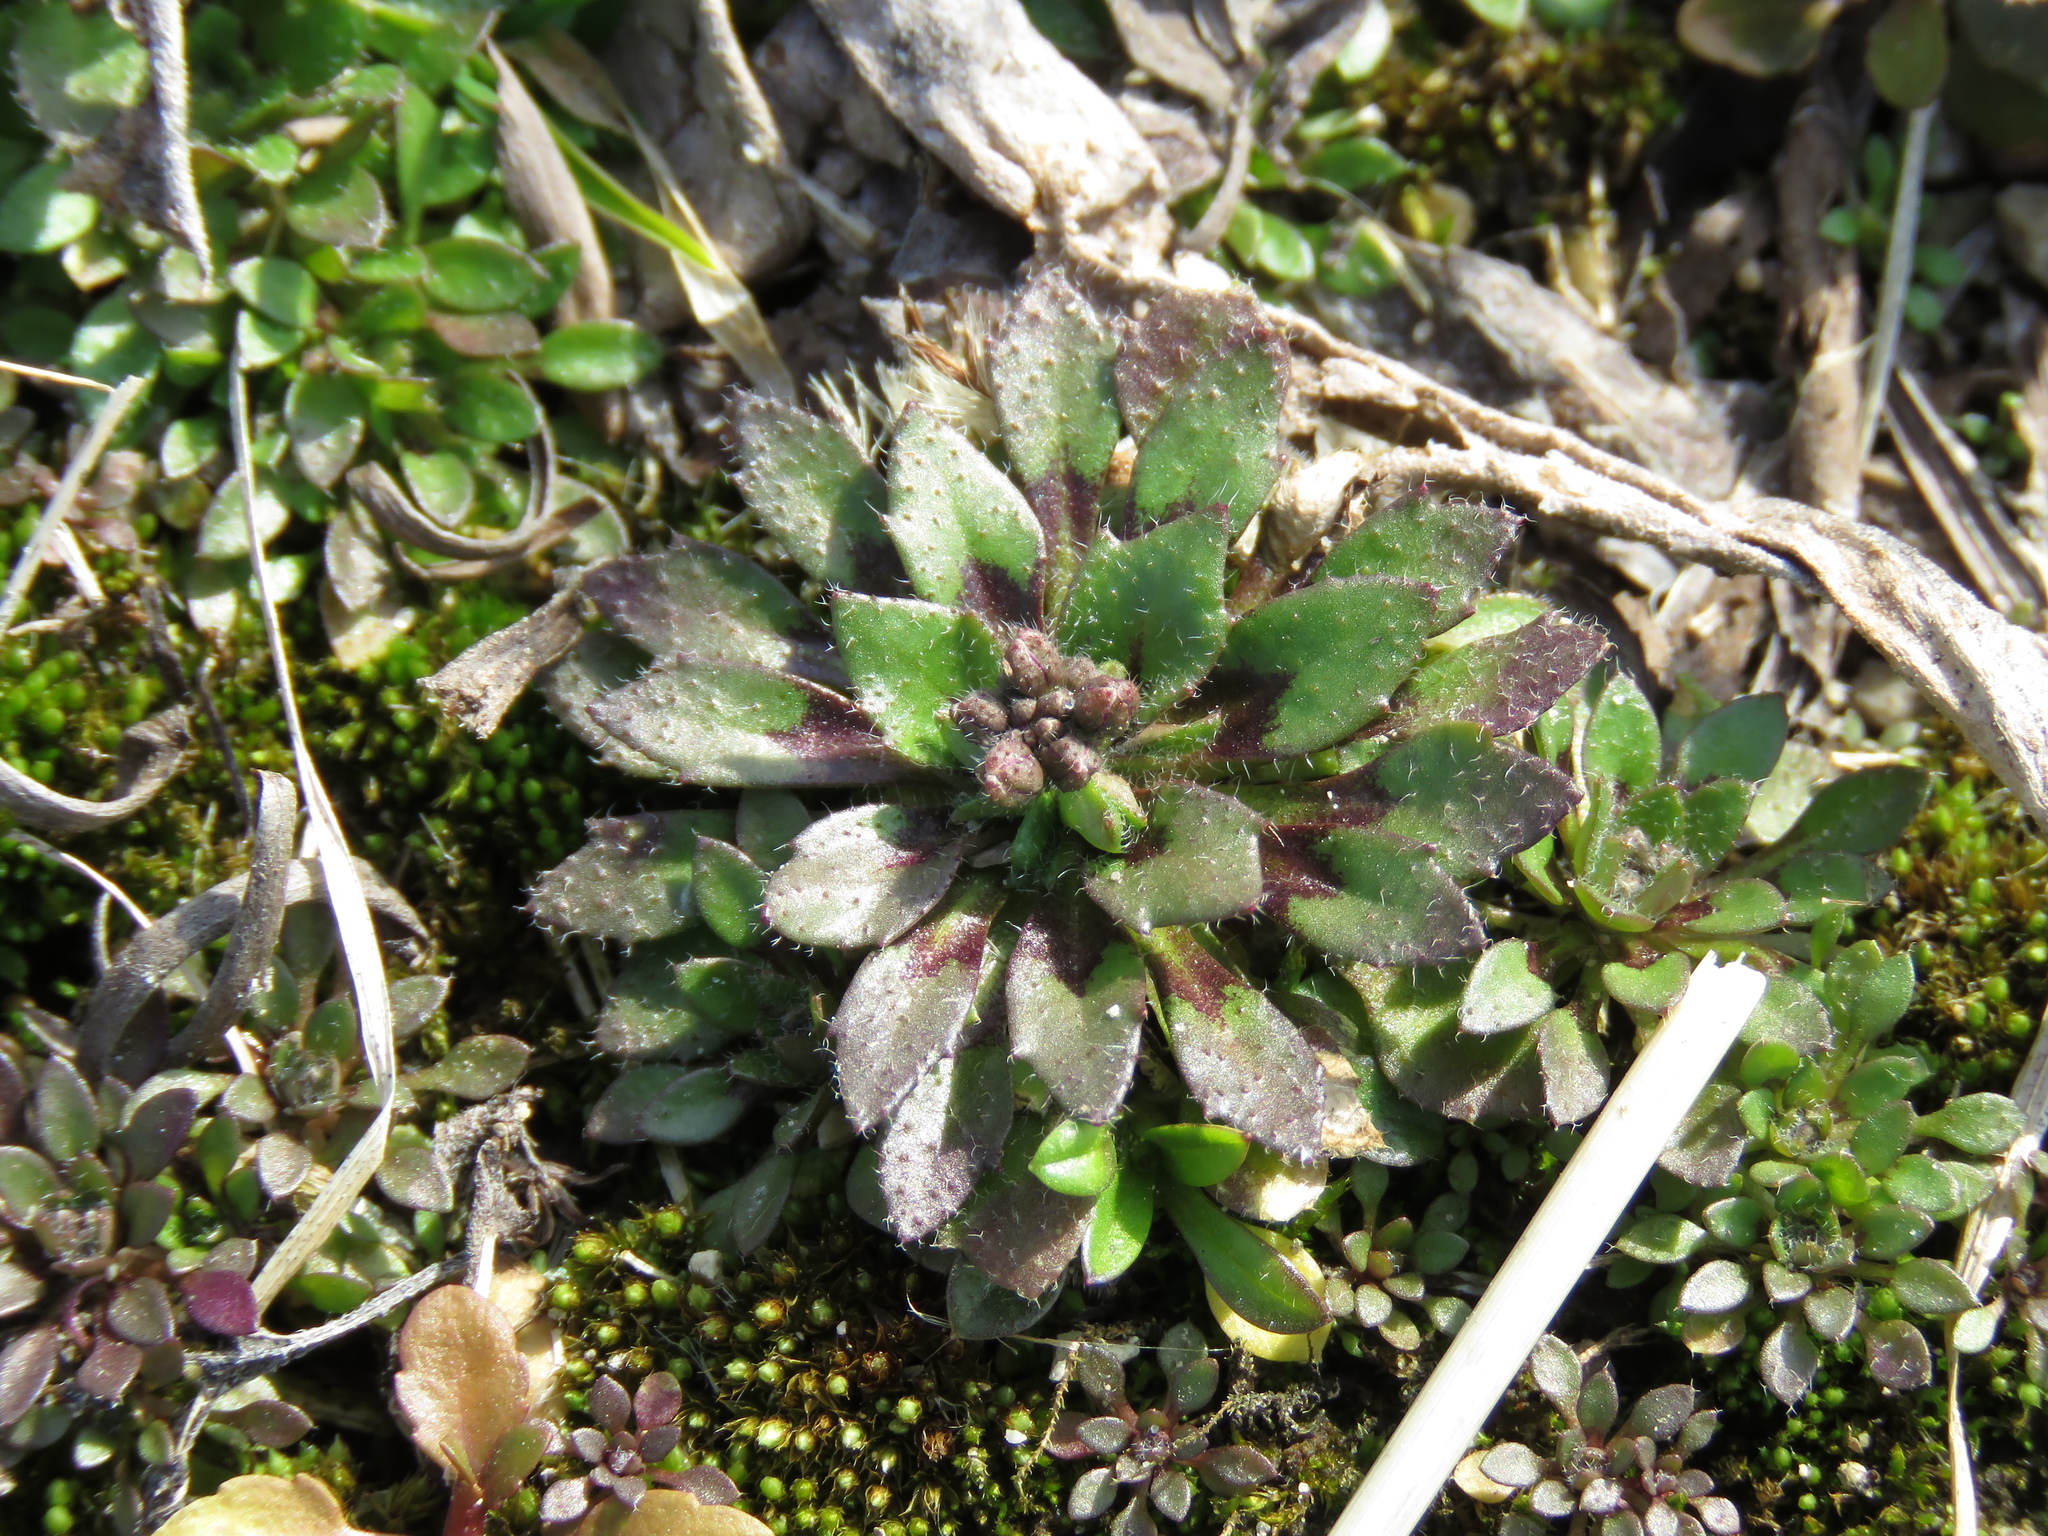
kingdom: Plantae
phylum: Tracheophyta
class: Magnoliopsida
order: Brassicales
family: Brassicaceae
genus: Draba
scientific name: Draba verna
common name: Spring draba
